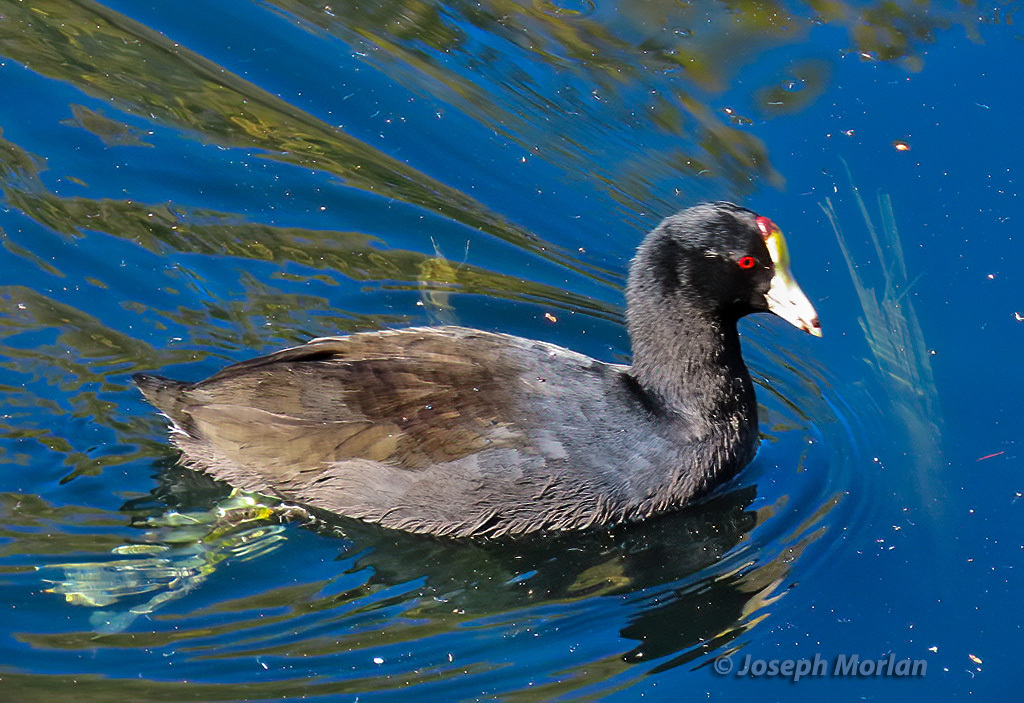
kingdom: Animalia
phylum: Chordata
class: Aves
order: Gruiformes
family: Rallidae
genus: Fulica
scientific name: Fulica americana
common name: American coot
